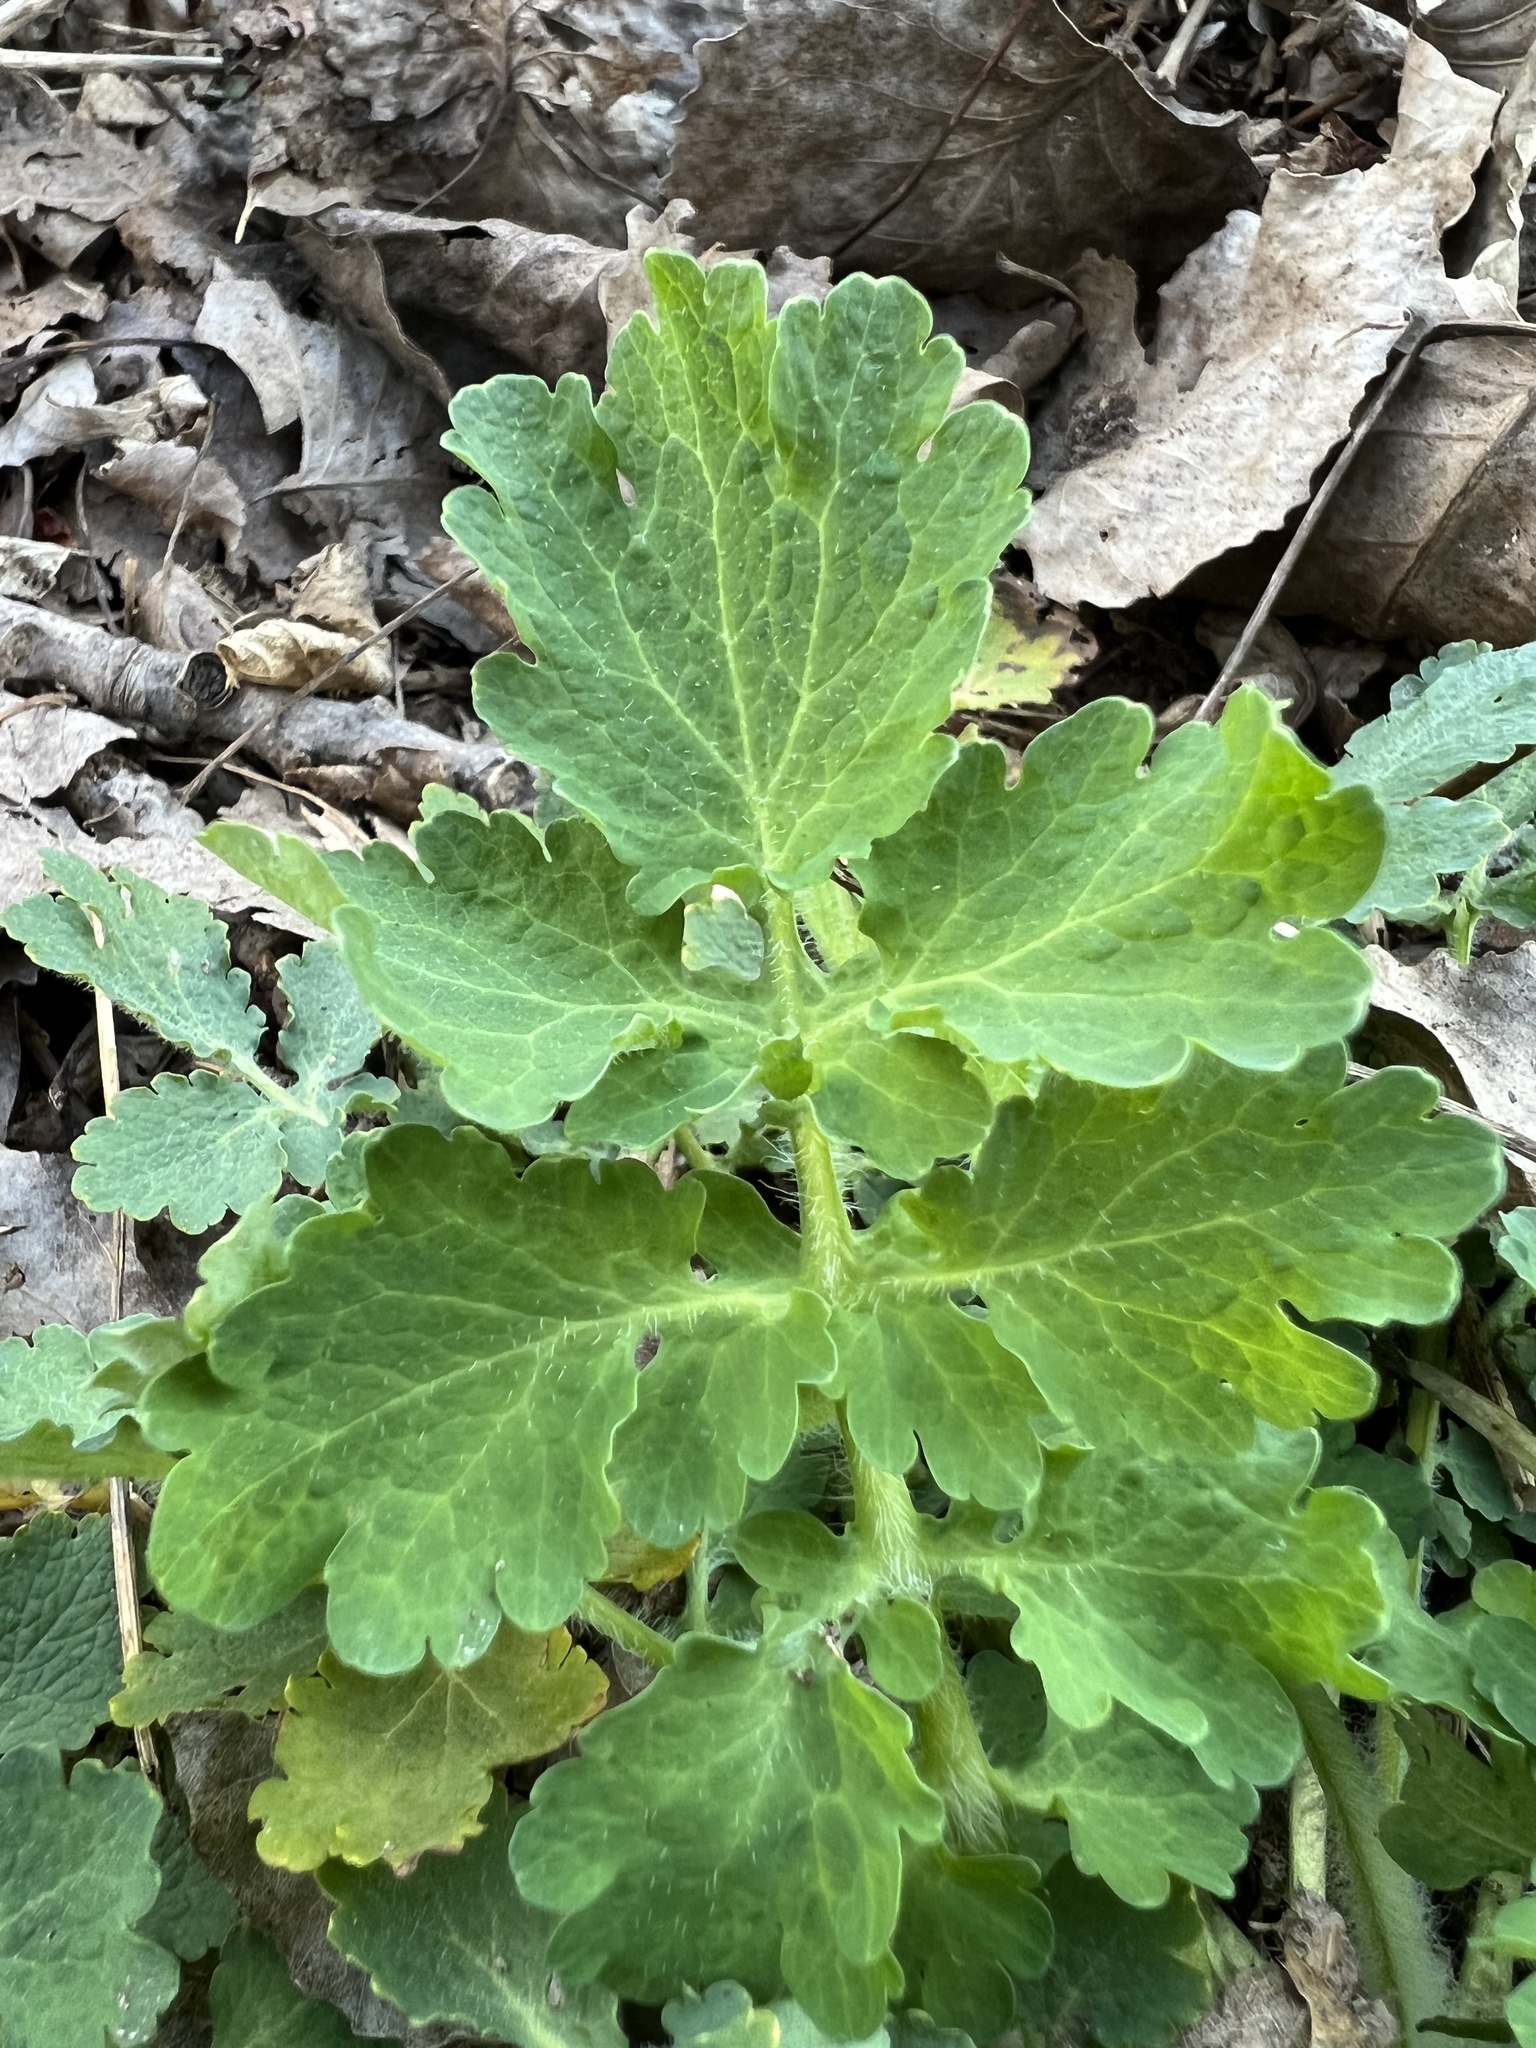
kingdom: Plantae
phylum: Tracheophyta
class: Magnoliopsida
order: Ranunculales
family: Papaveraceae
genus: Chelidonium
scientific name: Chelidonium majus
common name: Greater celandine
